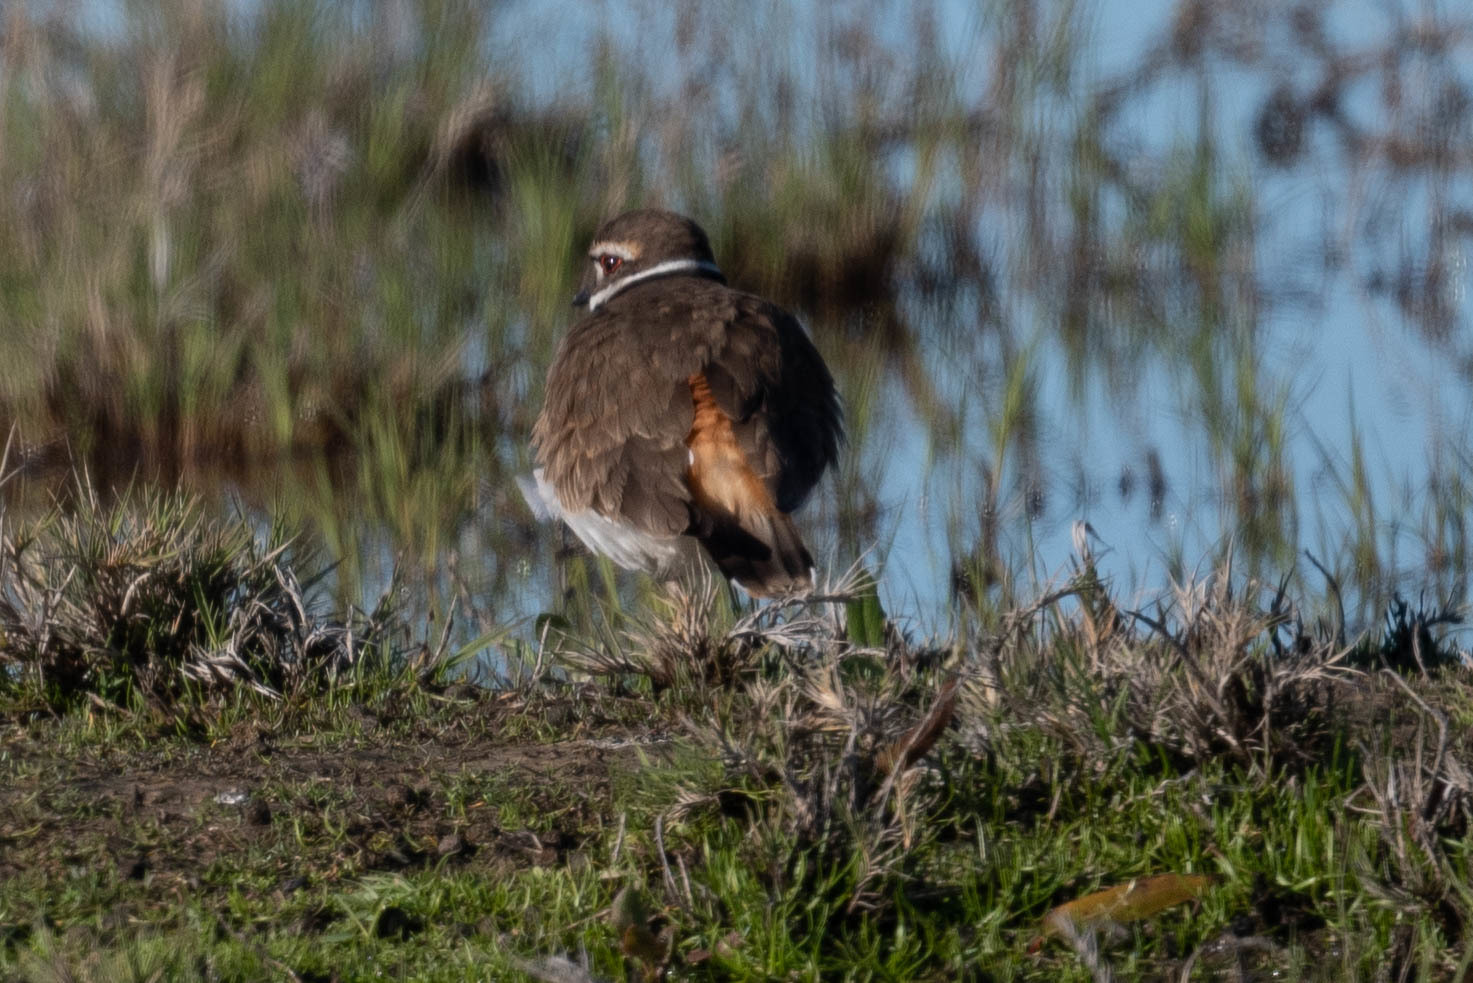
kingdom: Animalia
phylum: Chordata
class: Aves
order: Charadriiformes
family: Charadriidae
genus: Charadrius
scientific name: Charadrius vociferus
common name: Killdeer
